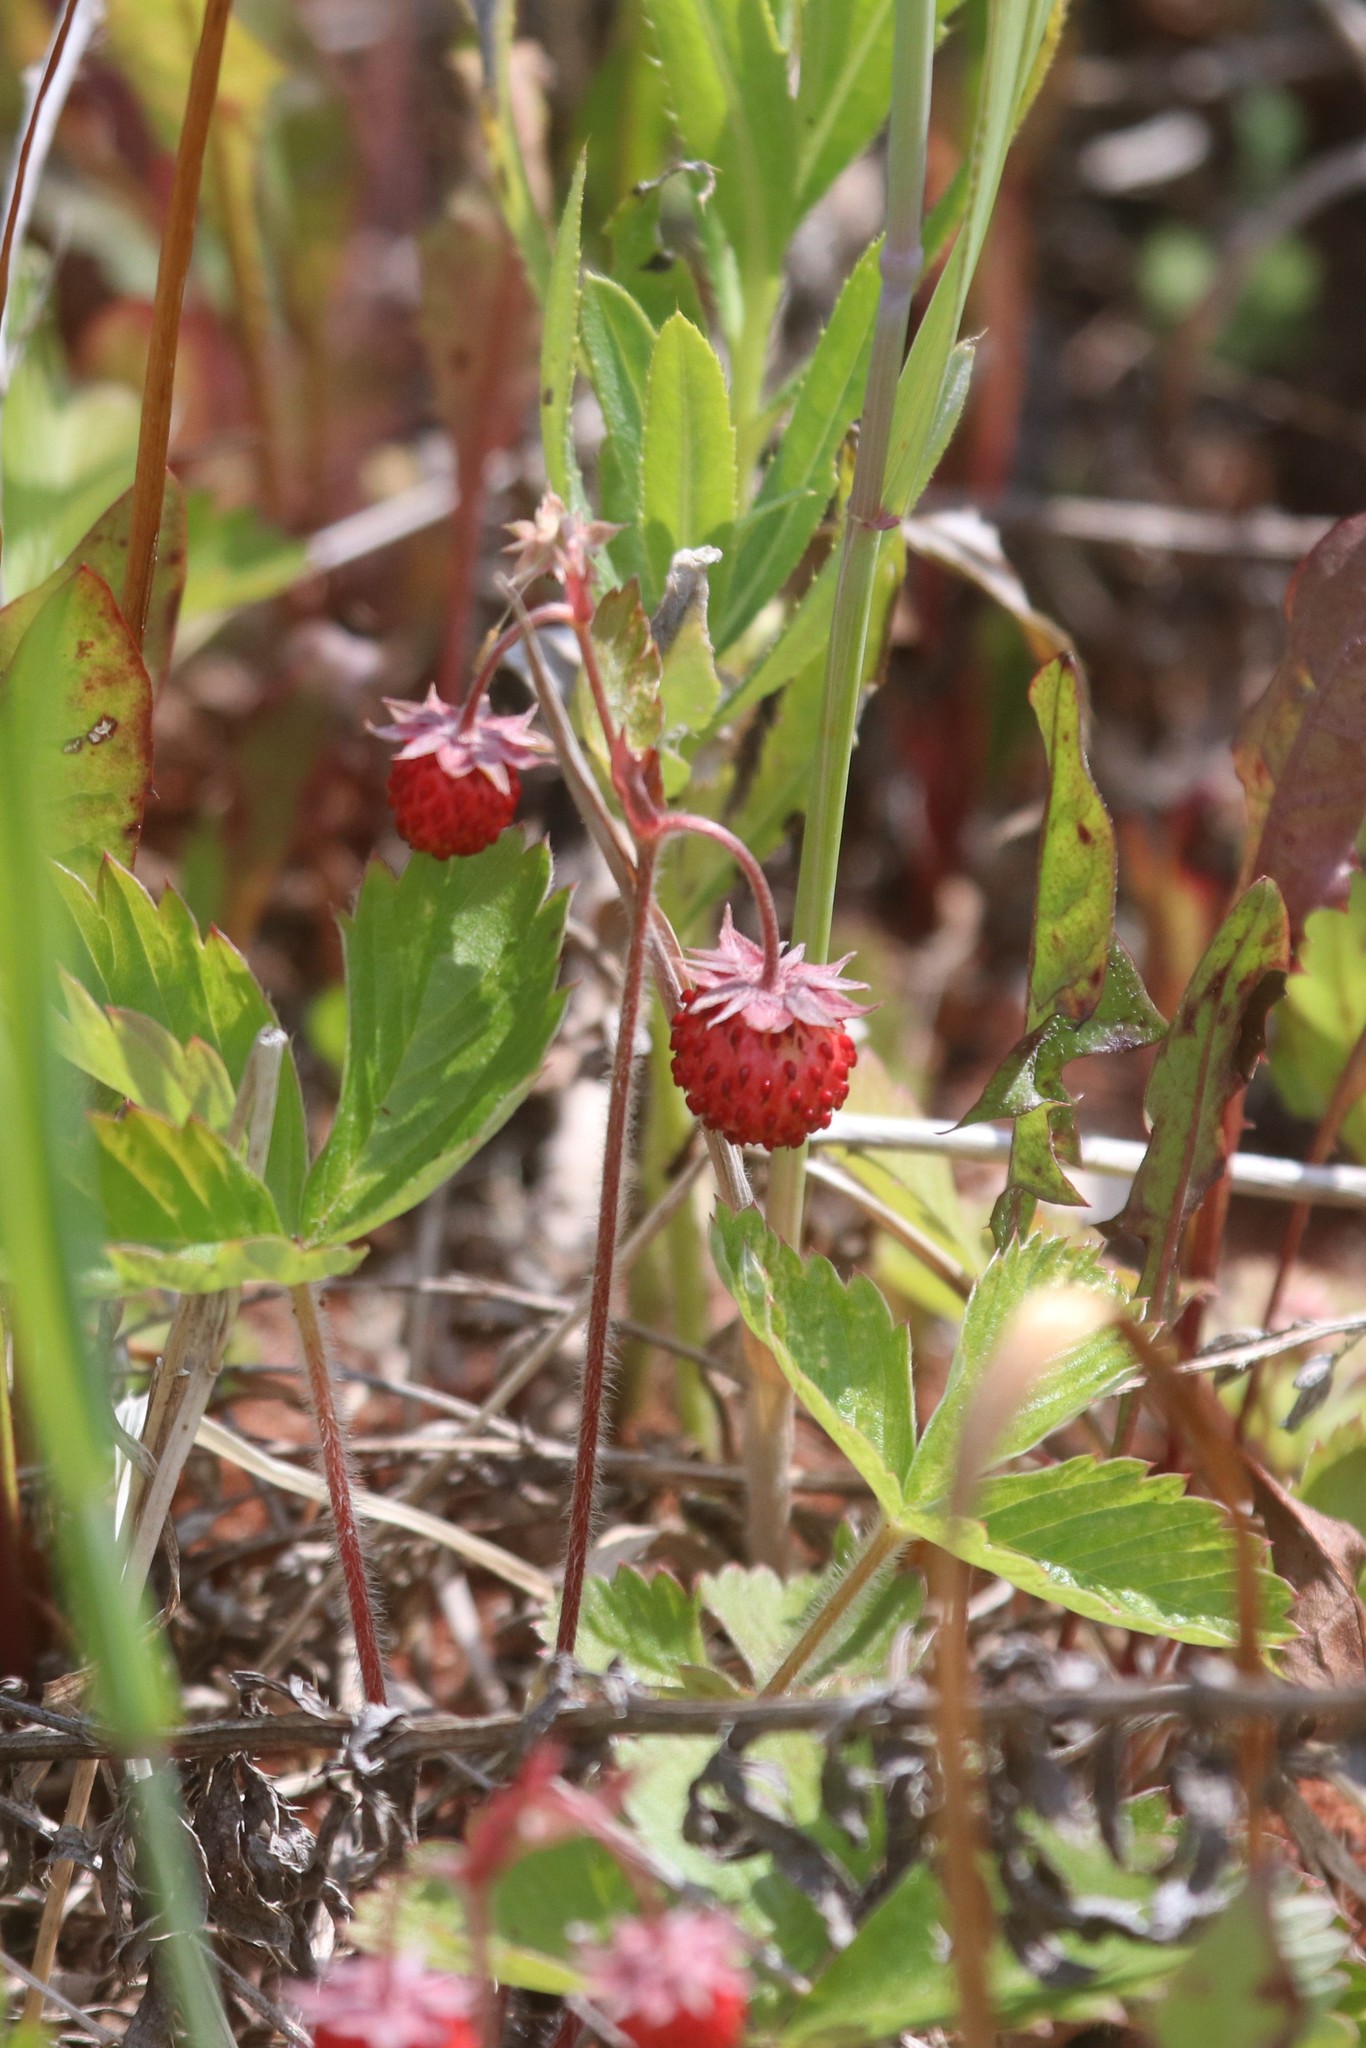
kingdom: Plantae
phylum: Tracheophyta
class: Magnoliopsida
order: Rosales
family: Rosaceae
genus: Fragaria
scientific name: Fragaria vesca
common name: Wild strawberry
